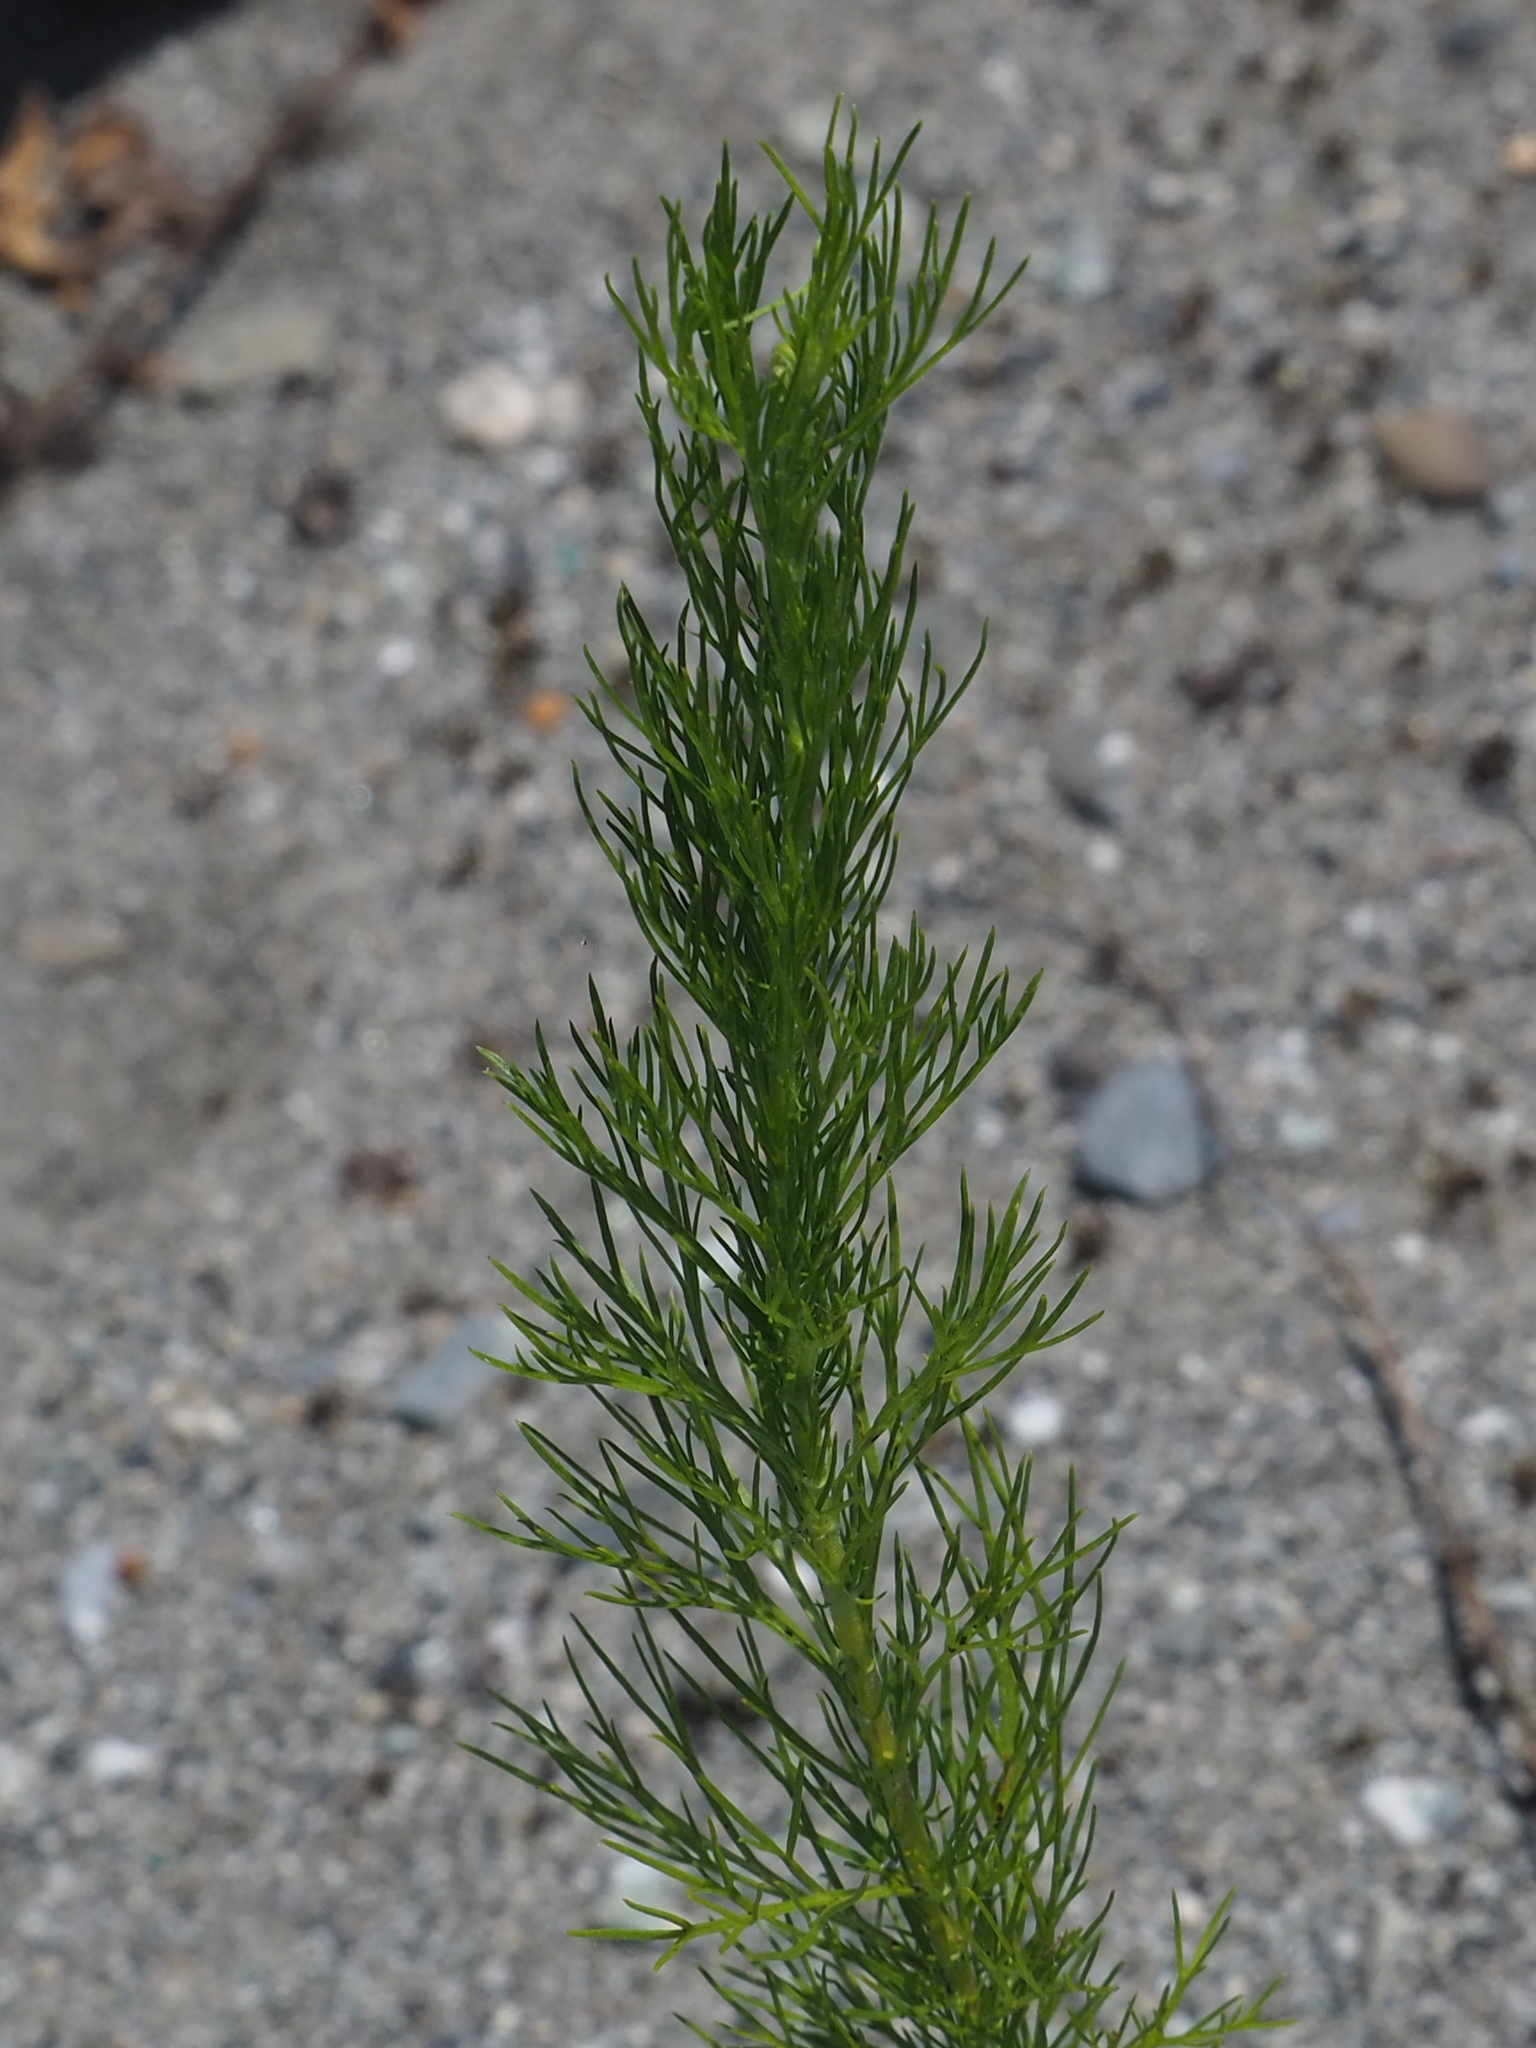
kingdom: Plantae
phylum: Tracheophyta
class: Magnoliopsida
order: Asterales
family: Asteraceae
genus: Artemisia
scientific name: Artemisia capillaris
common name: Yin-chen wormwood
